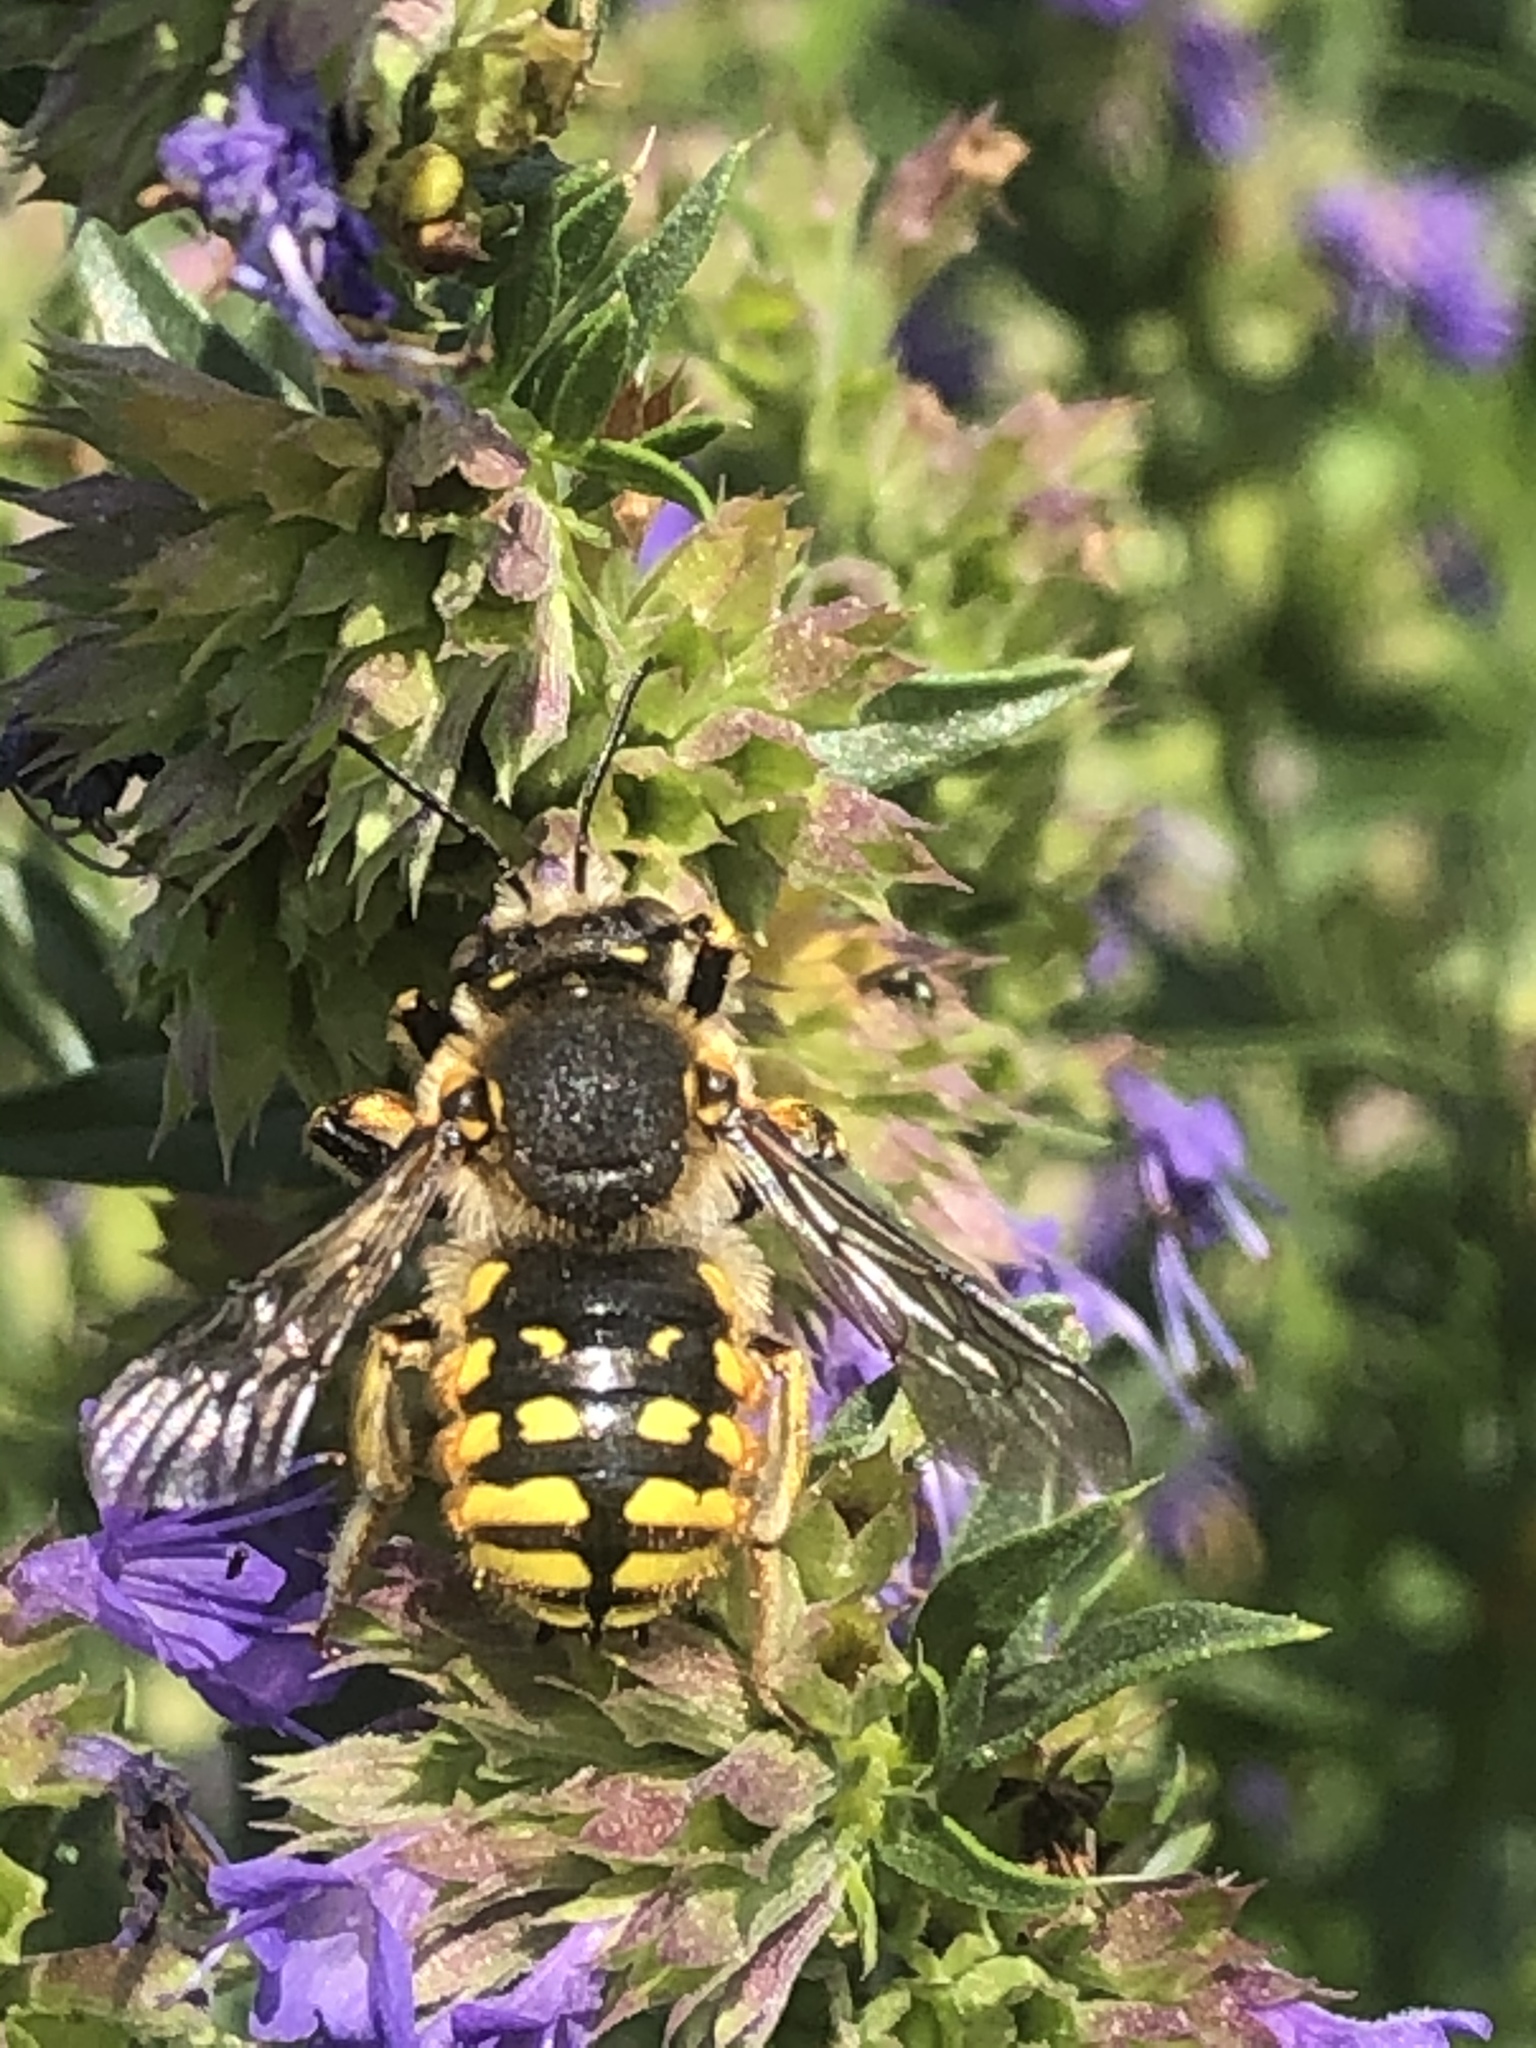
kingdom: Animalia
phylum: Arthropoda
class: Insecta
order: Hymenoptera
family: Megachilidae
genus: Anthidium
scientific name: Anthidium manicatum
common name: Wool carder bee
